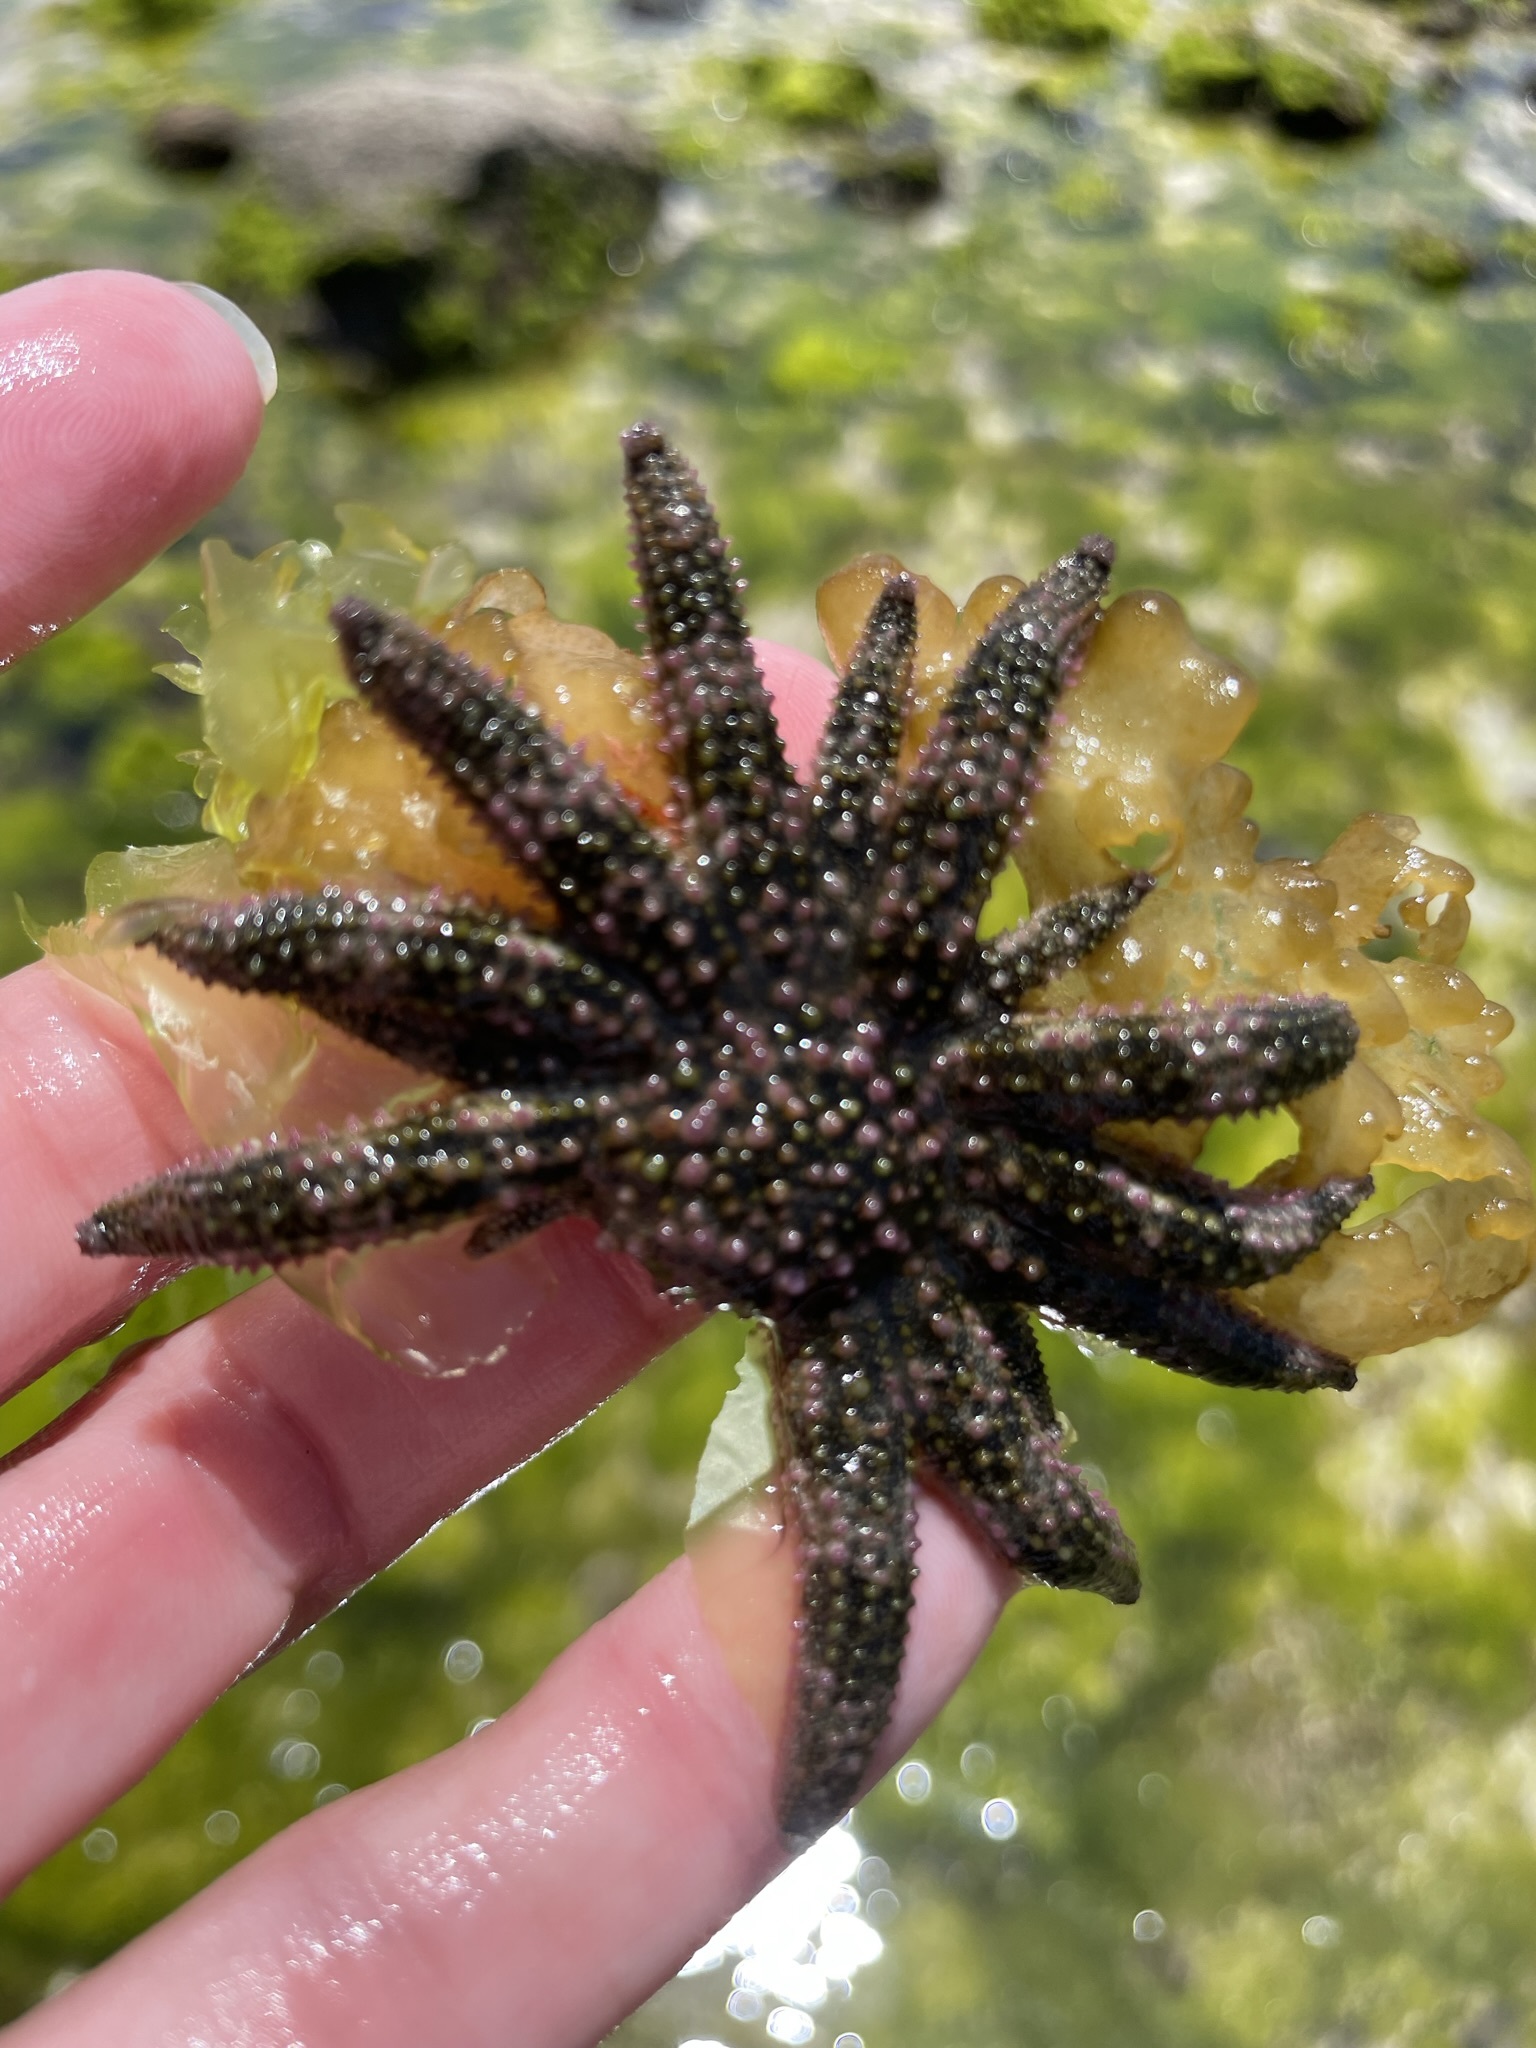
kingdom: Animalia
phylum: Echinodermata
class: Asteroidea
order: Forcipulatida
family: Heliasteridae
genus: Heliaster
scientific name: Heliaster kubiniji
